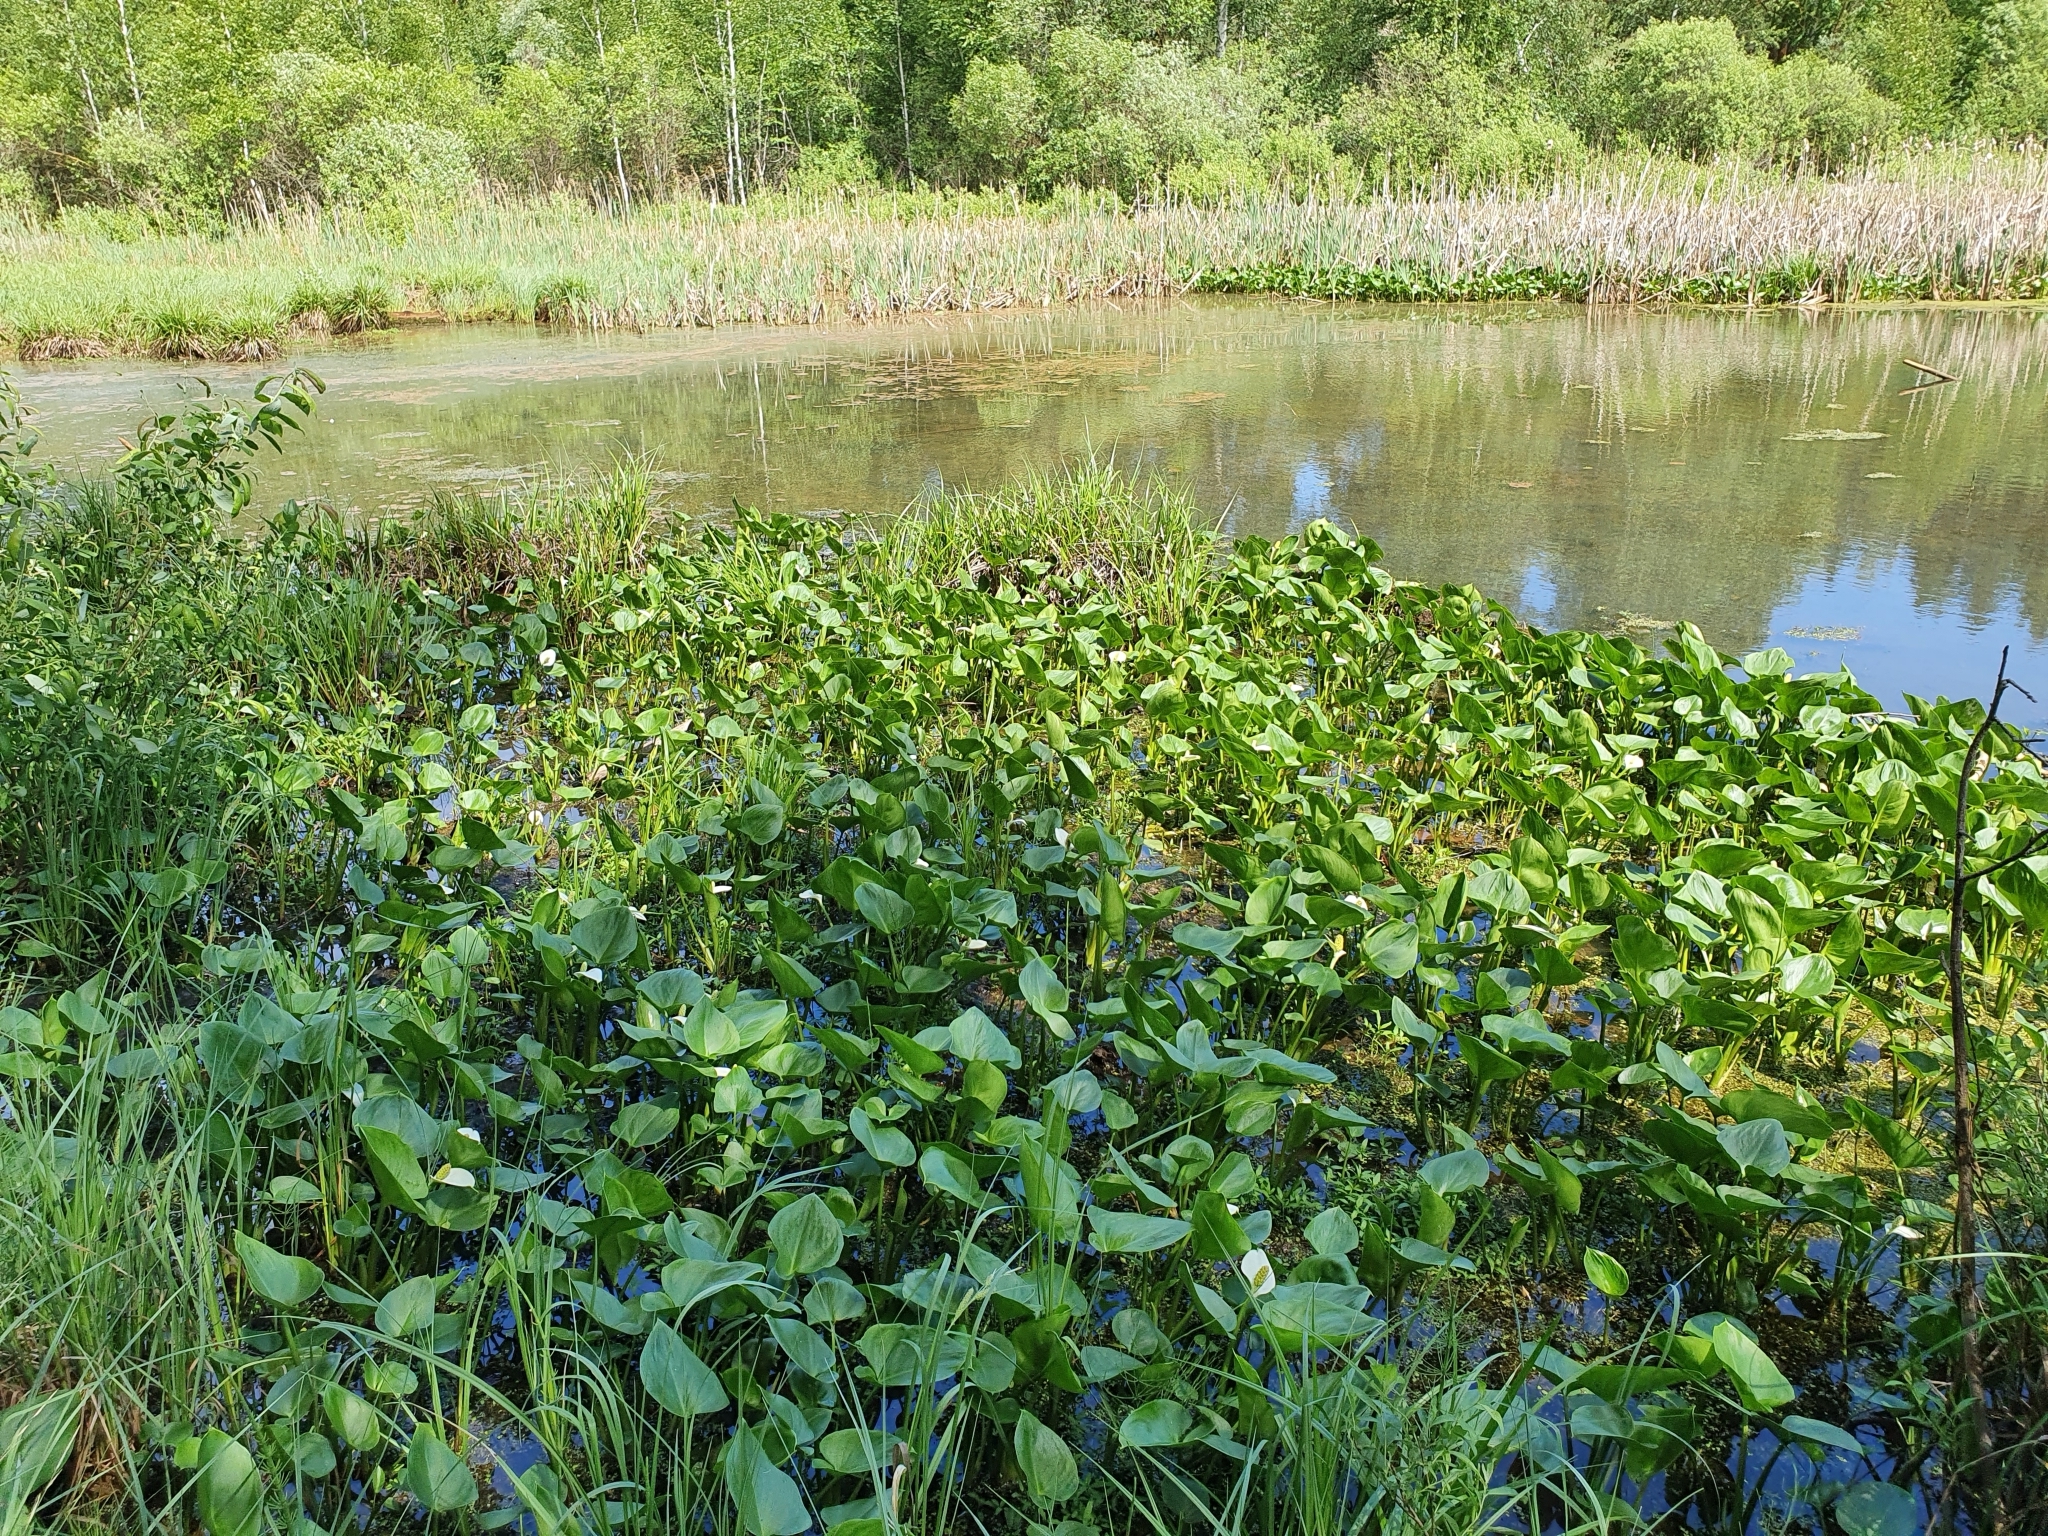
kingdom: Plantae
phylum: Tracheophyta
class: Liliopsida
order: Alismatales
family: Araceae
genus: Calla
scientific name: Calla palustris
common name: Bog arum
